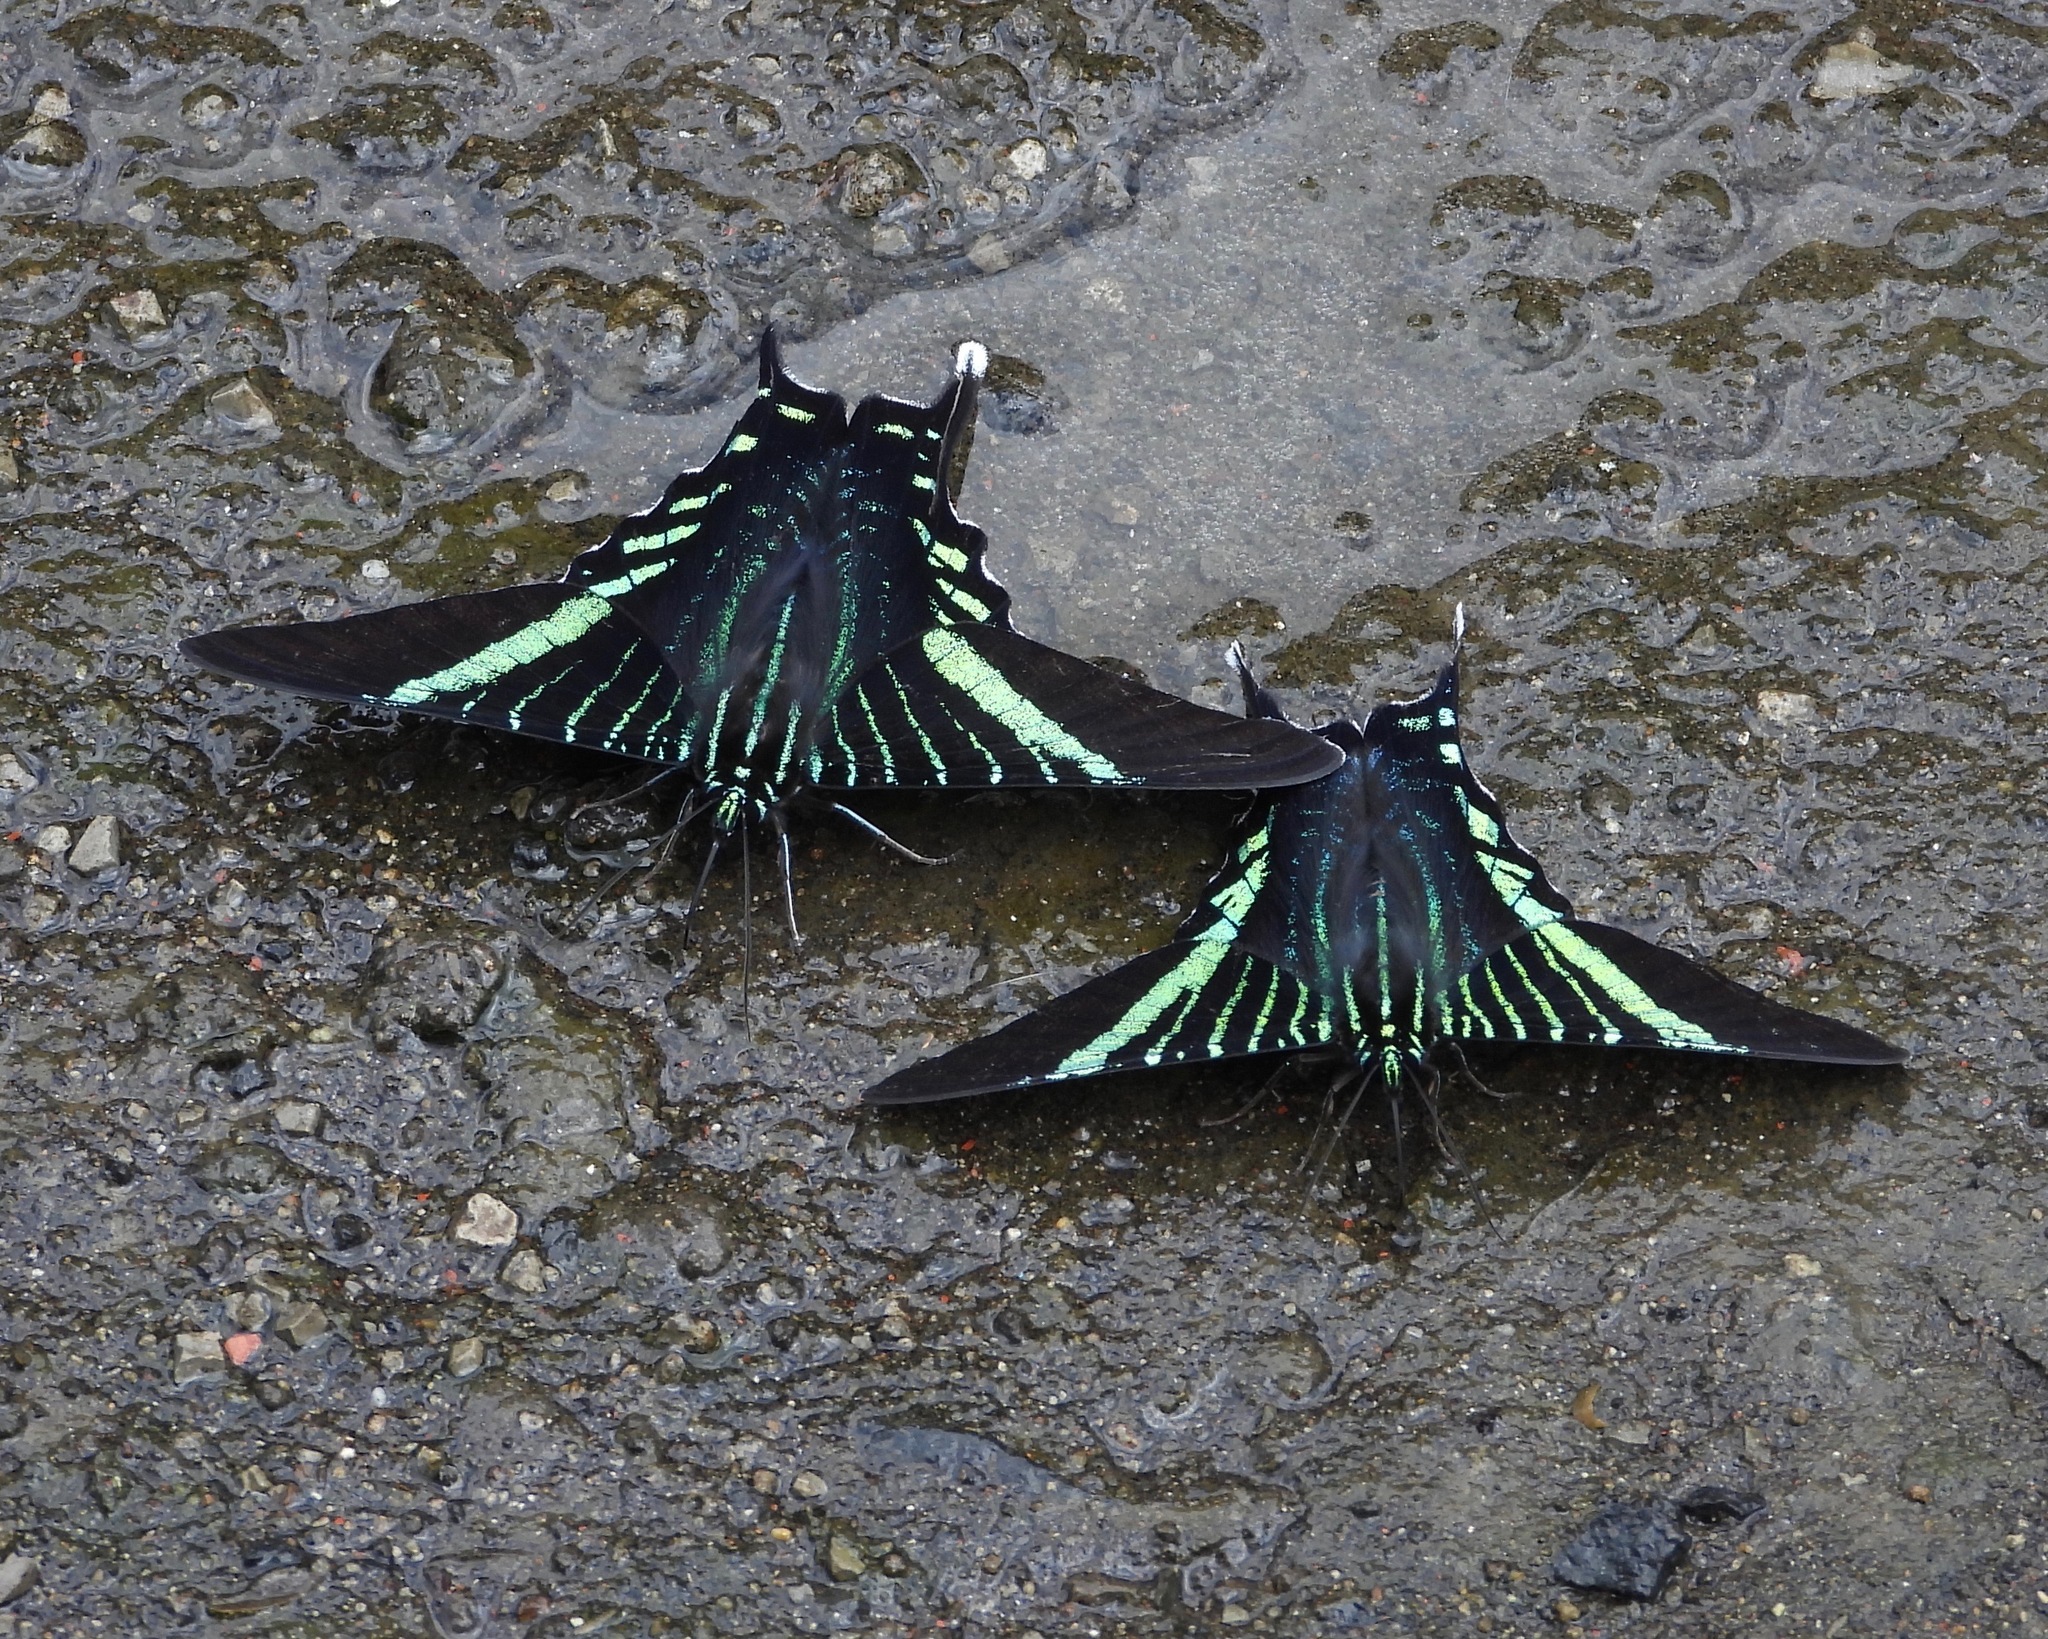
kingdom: Animalia
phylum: Arthropoda
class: Insecta
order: Lepidoptera
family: Uraniidae
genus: Urania
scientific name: Urania fulgens
